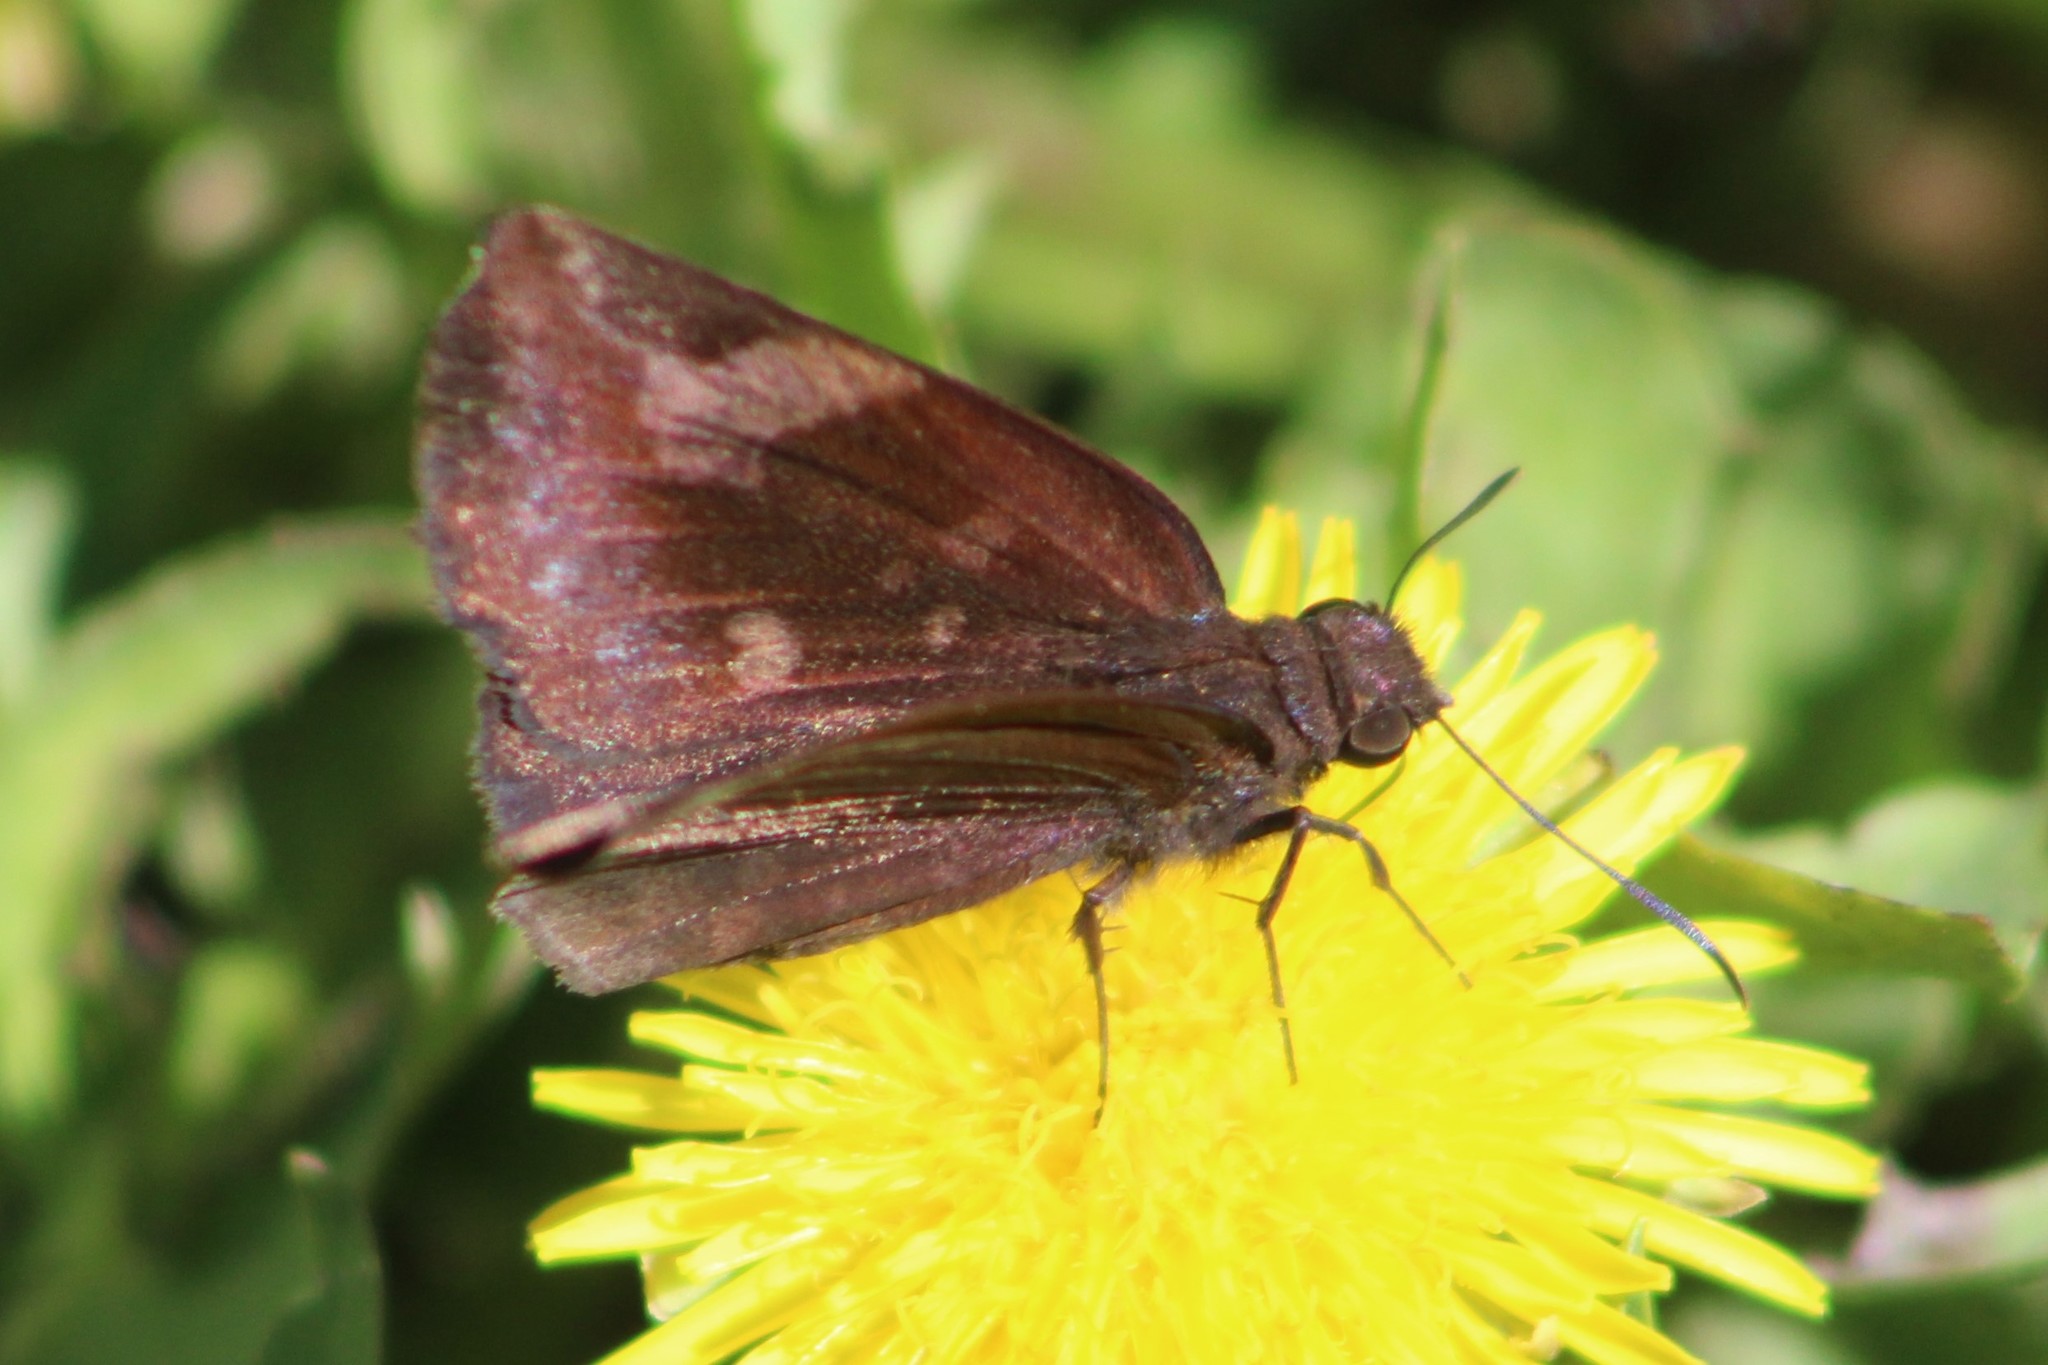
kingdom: Animalia
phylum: Arthropoda
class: Insecta
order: Lepidoptera
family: Hesperiidae
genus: Achlyodes
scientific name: Achlyodes thraso
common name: Sickle-winged skipper
